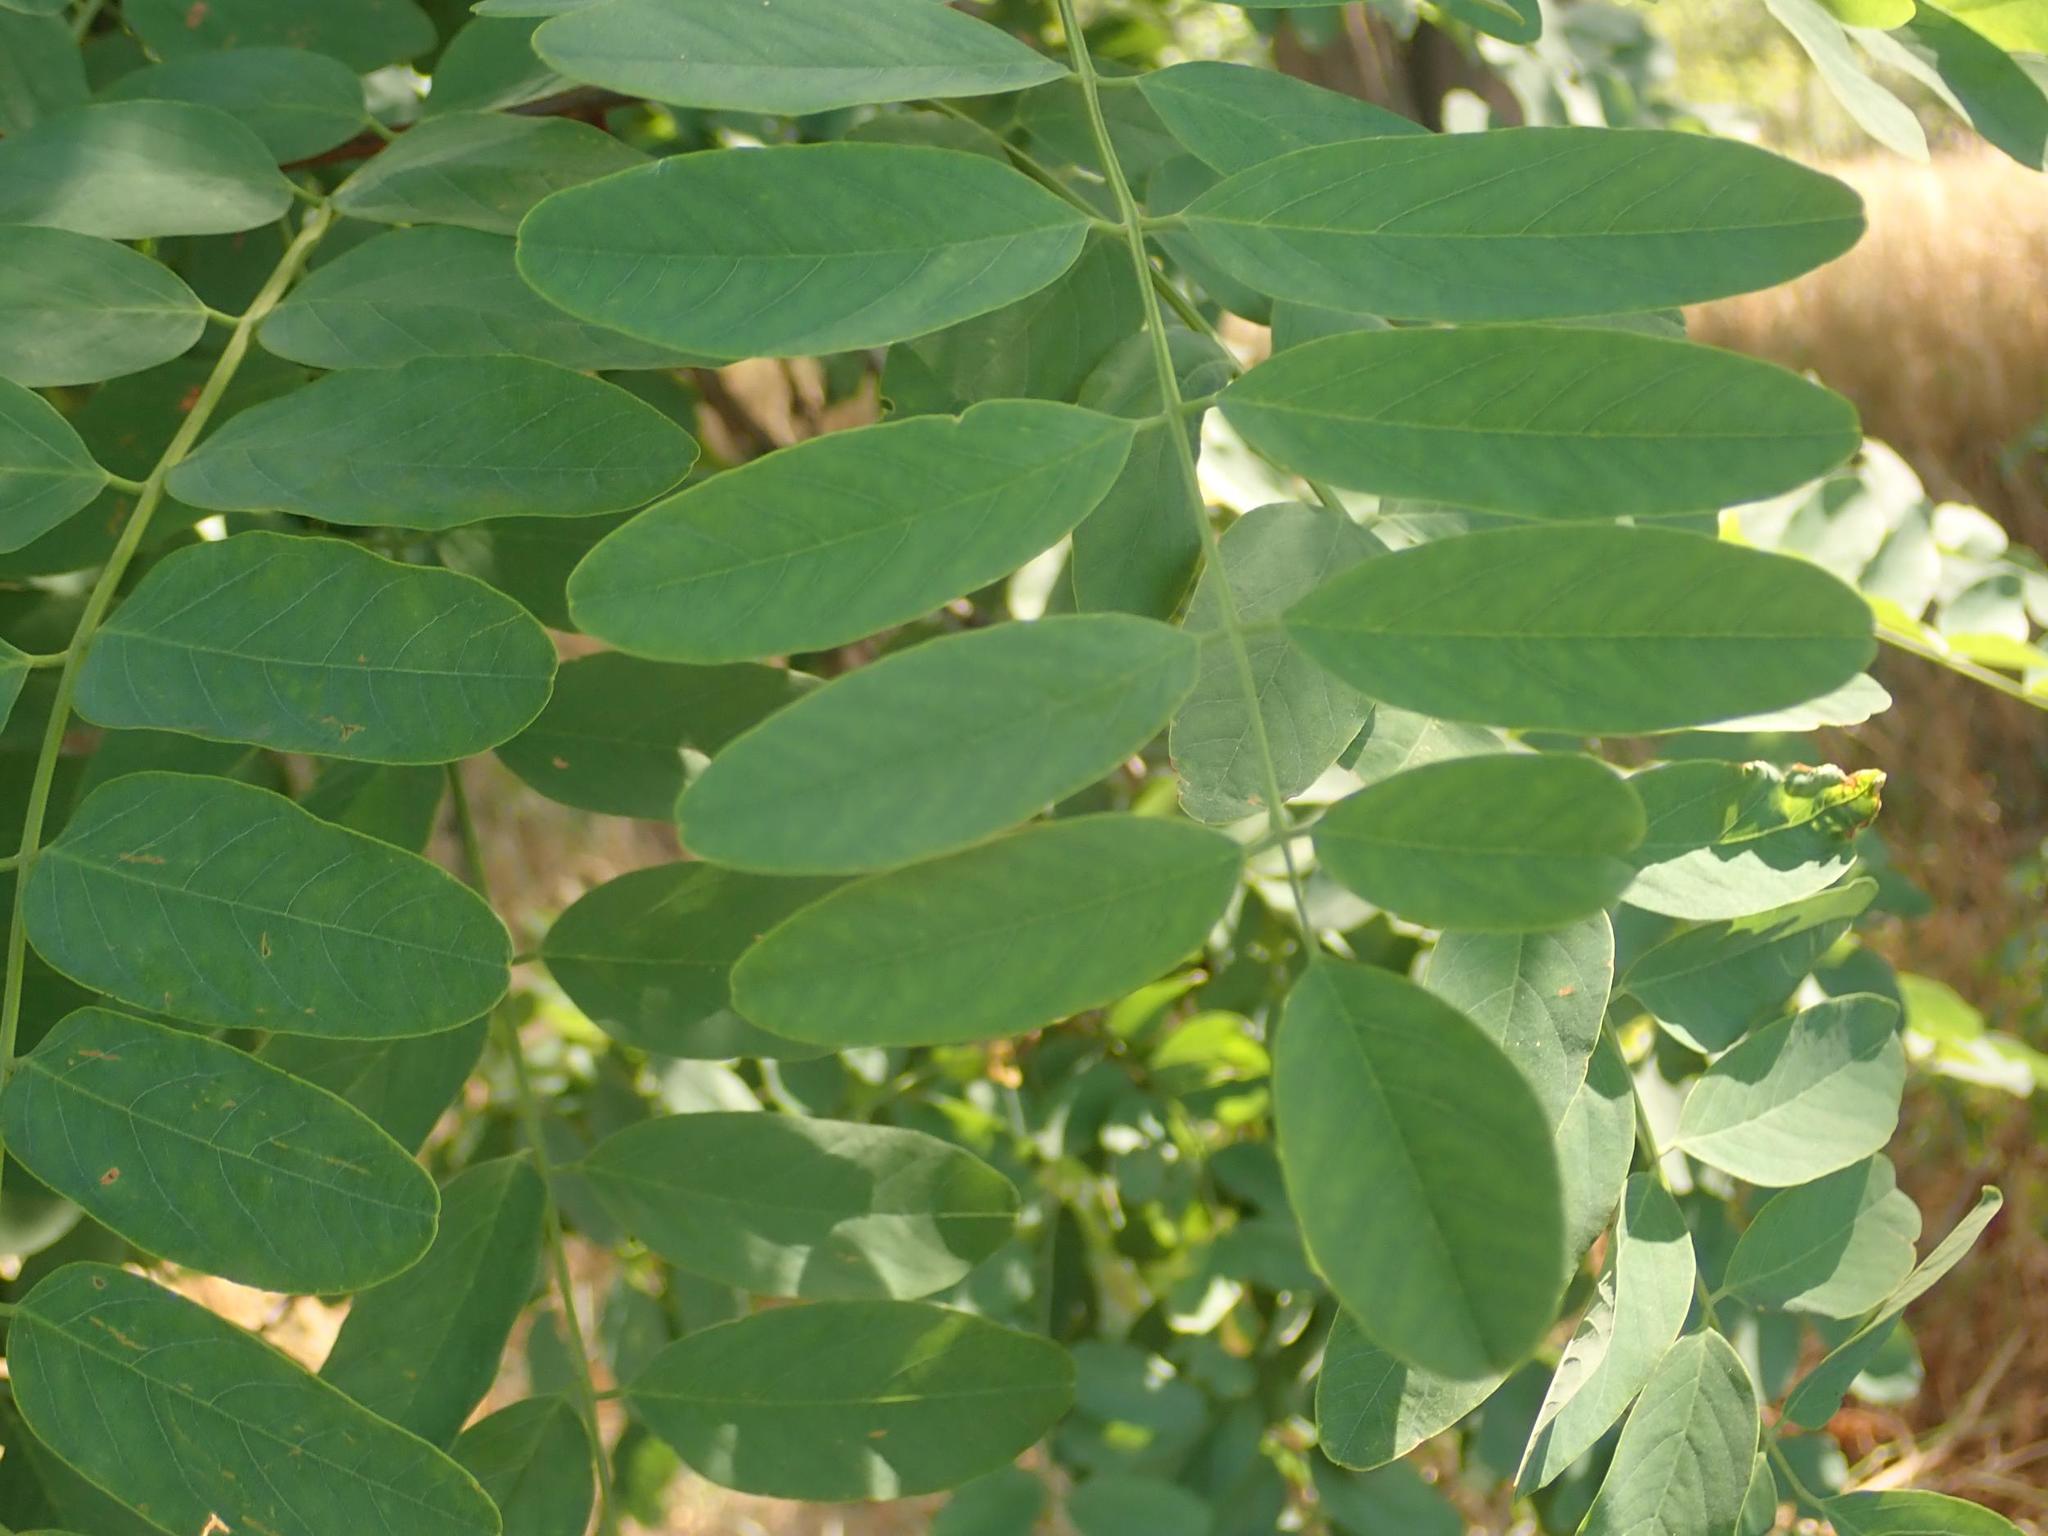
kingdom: Plantae
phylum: Tracheophyta
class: Magnoliopsida
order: Fabales
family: Fabaceae
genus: Robinia
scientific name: Robinia pseudoacacia
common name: Black locust
